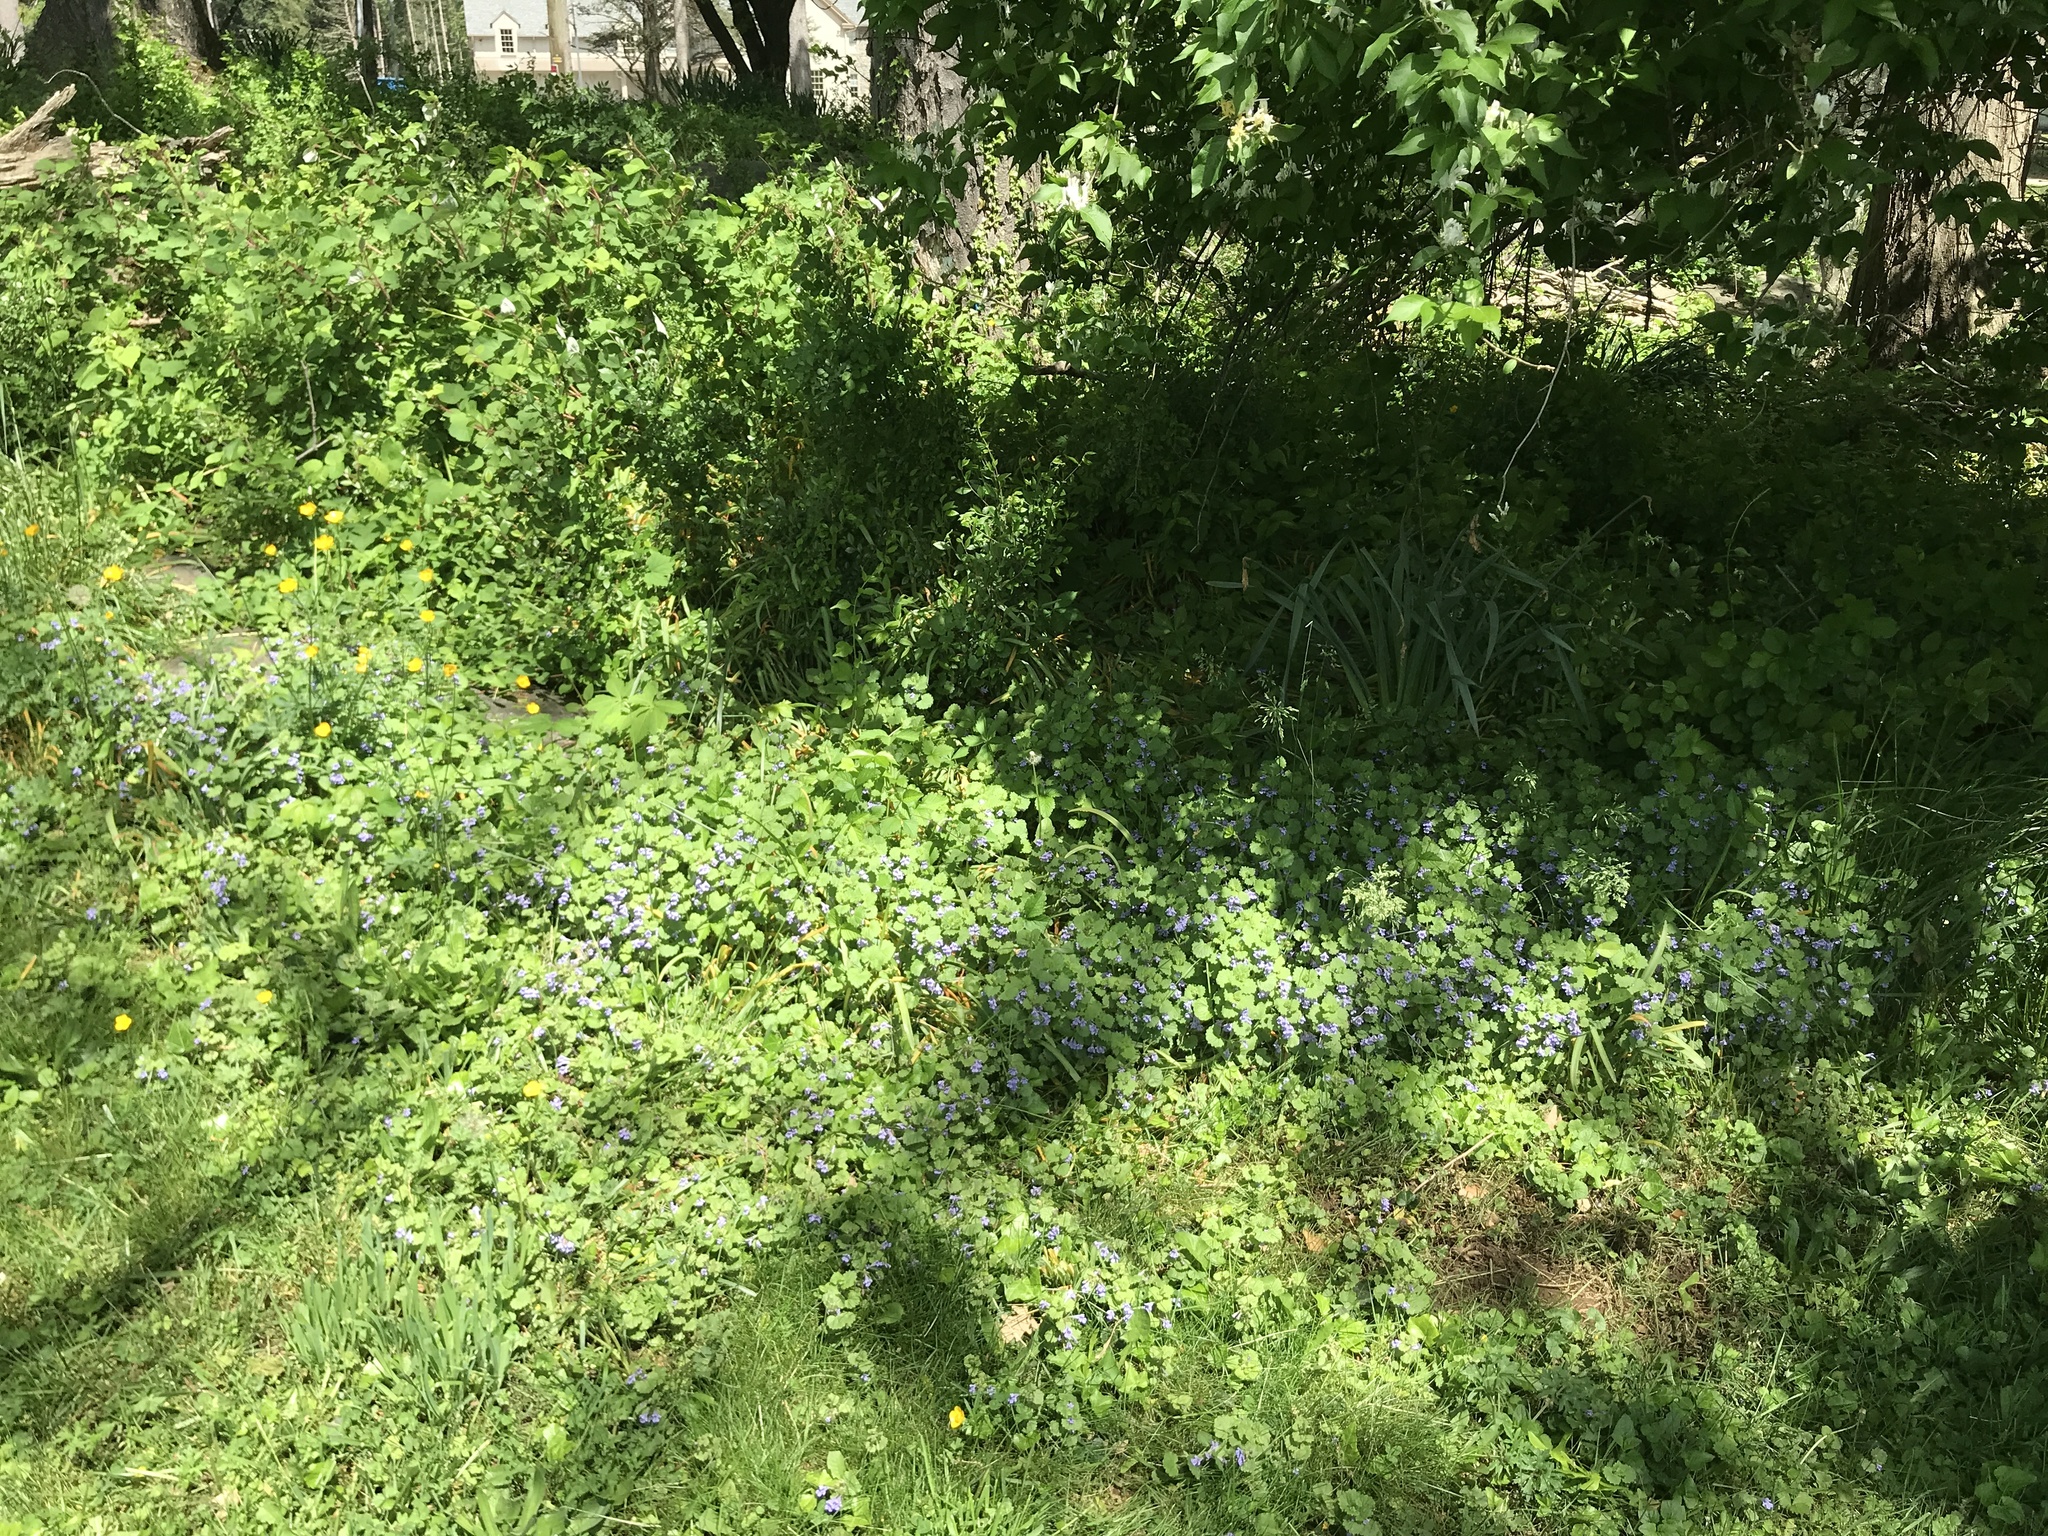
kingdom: Plantae
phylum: Tracheophyta
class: Magnoliopsida
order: Lamiales
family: Lamiaceae
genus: Glechoma
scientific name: Glechoma hederacea
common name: Ground ivy
